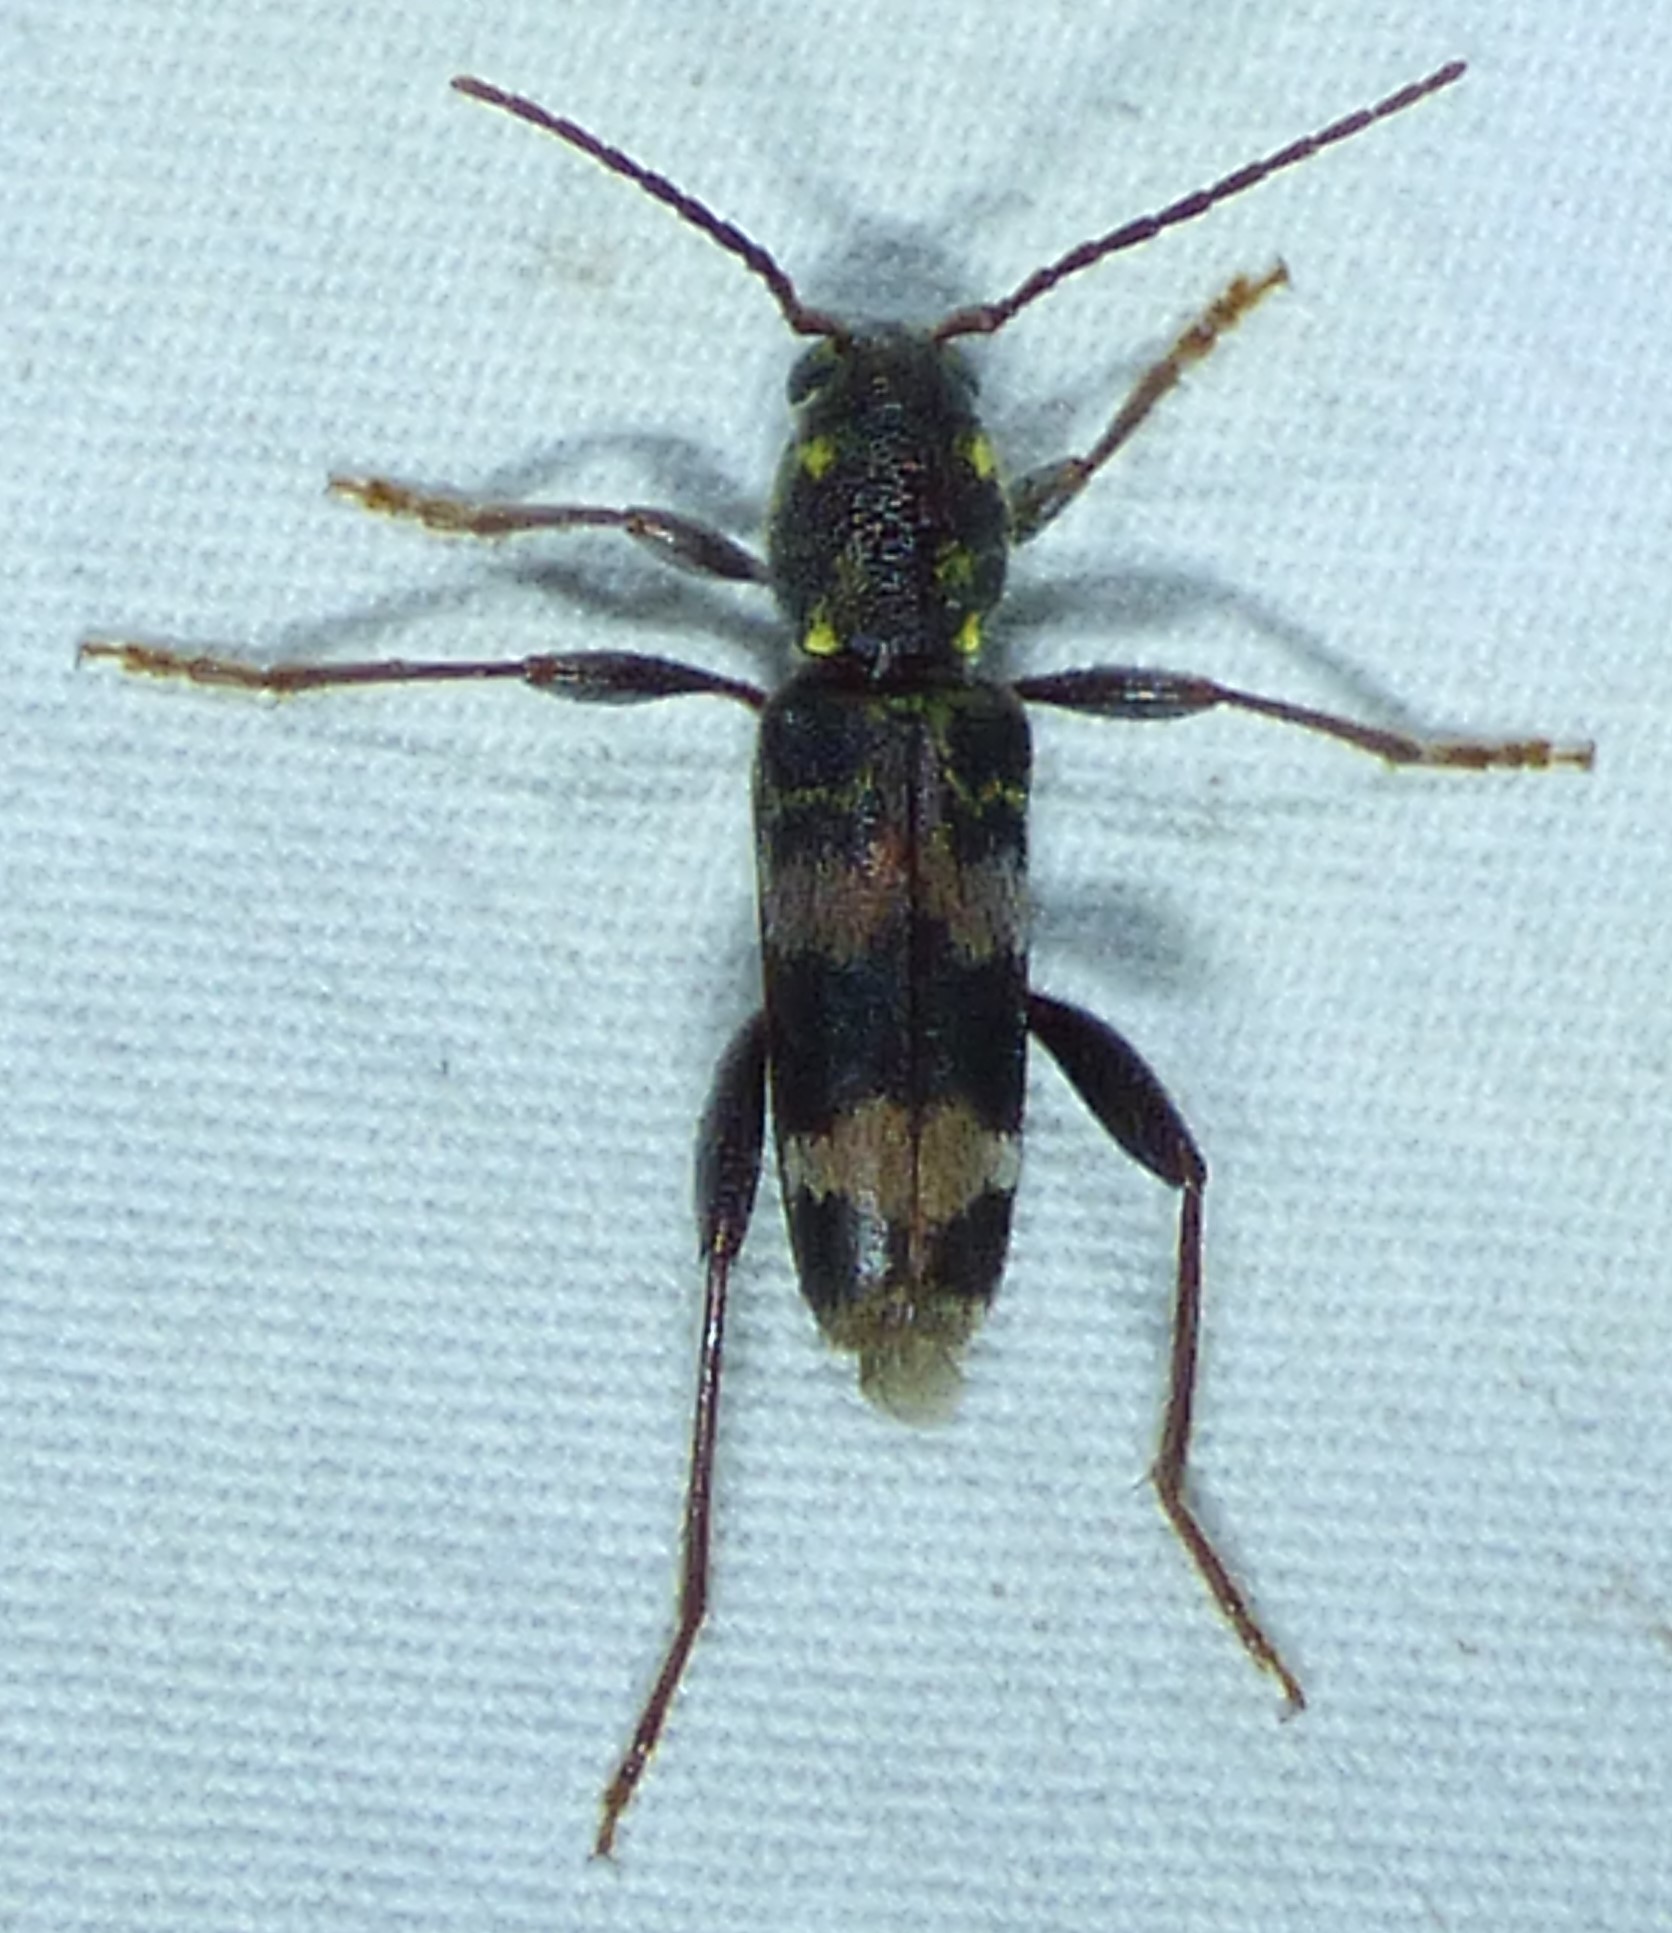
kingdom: Animalia
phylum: Arthropoda
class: Insecta
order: Coleoptera
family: Cerambycidae
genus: Xylotrechus
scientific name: Xylotrechus colonus
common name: Long-horned beetle
